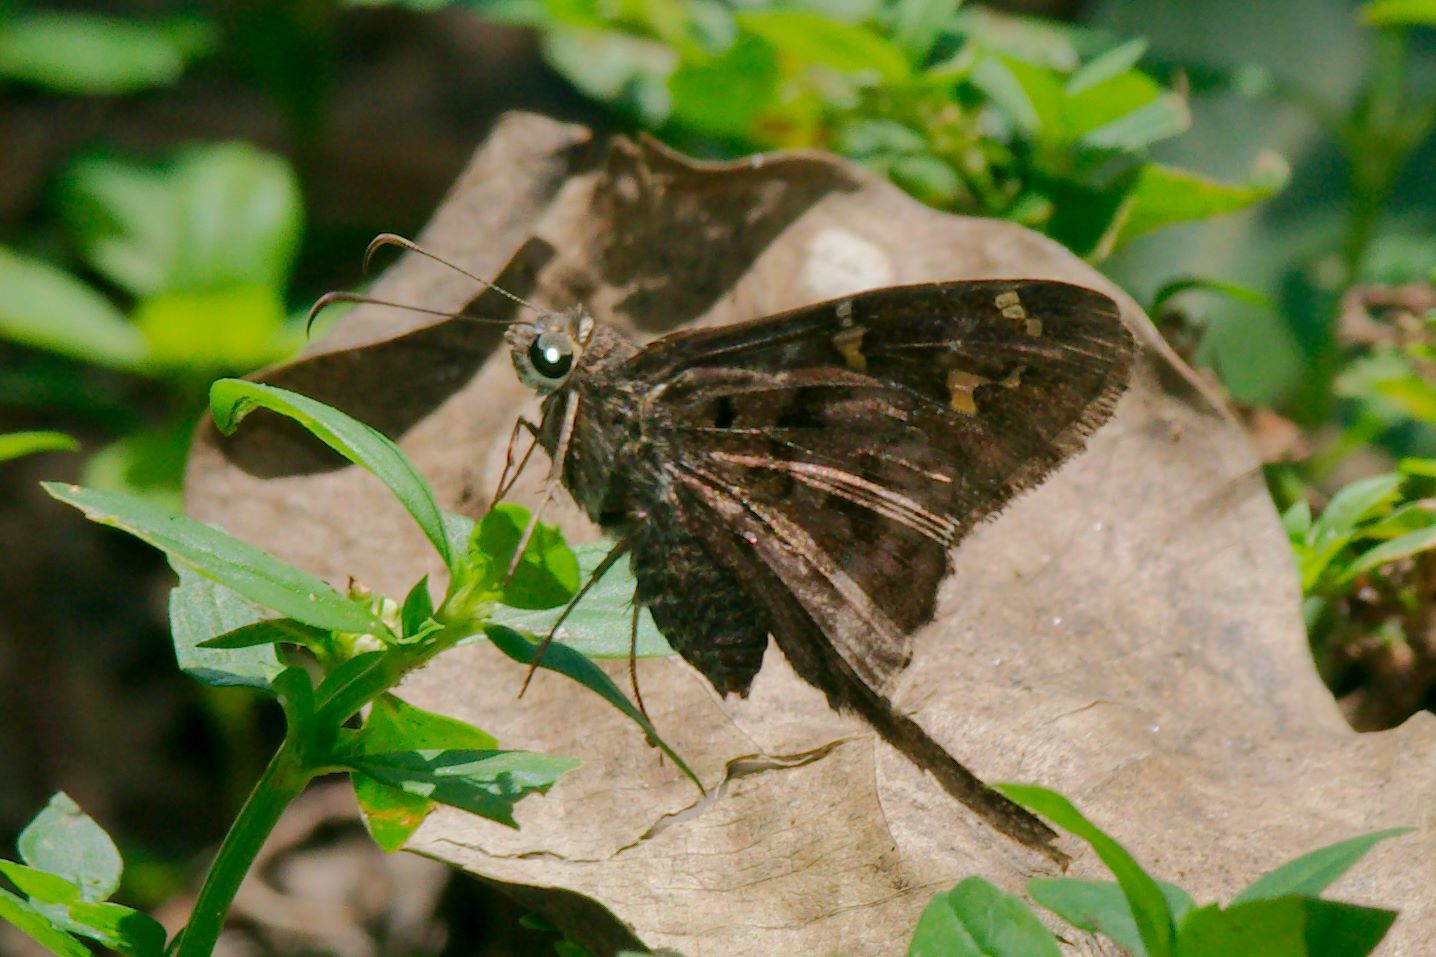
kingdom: Animalia
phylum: Arthropoda
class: Insecta
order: Lepidoptera
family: Hesperiidae
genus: Thorybes
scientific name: Thorybes
